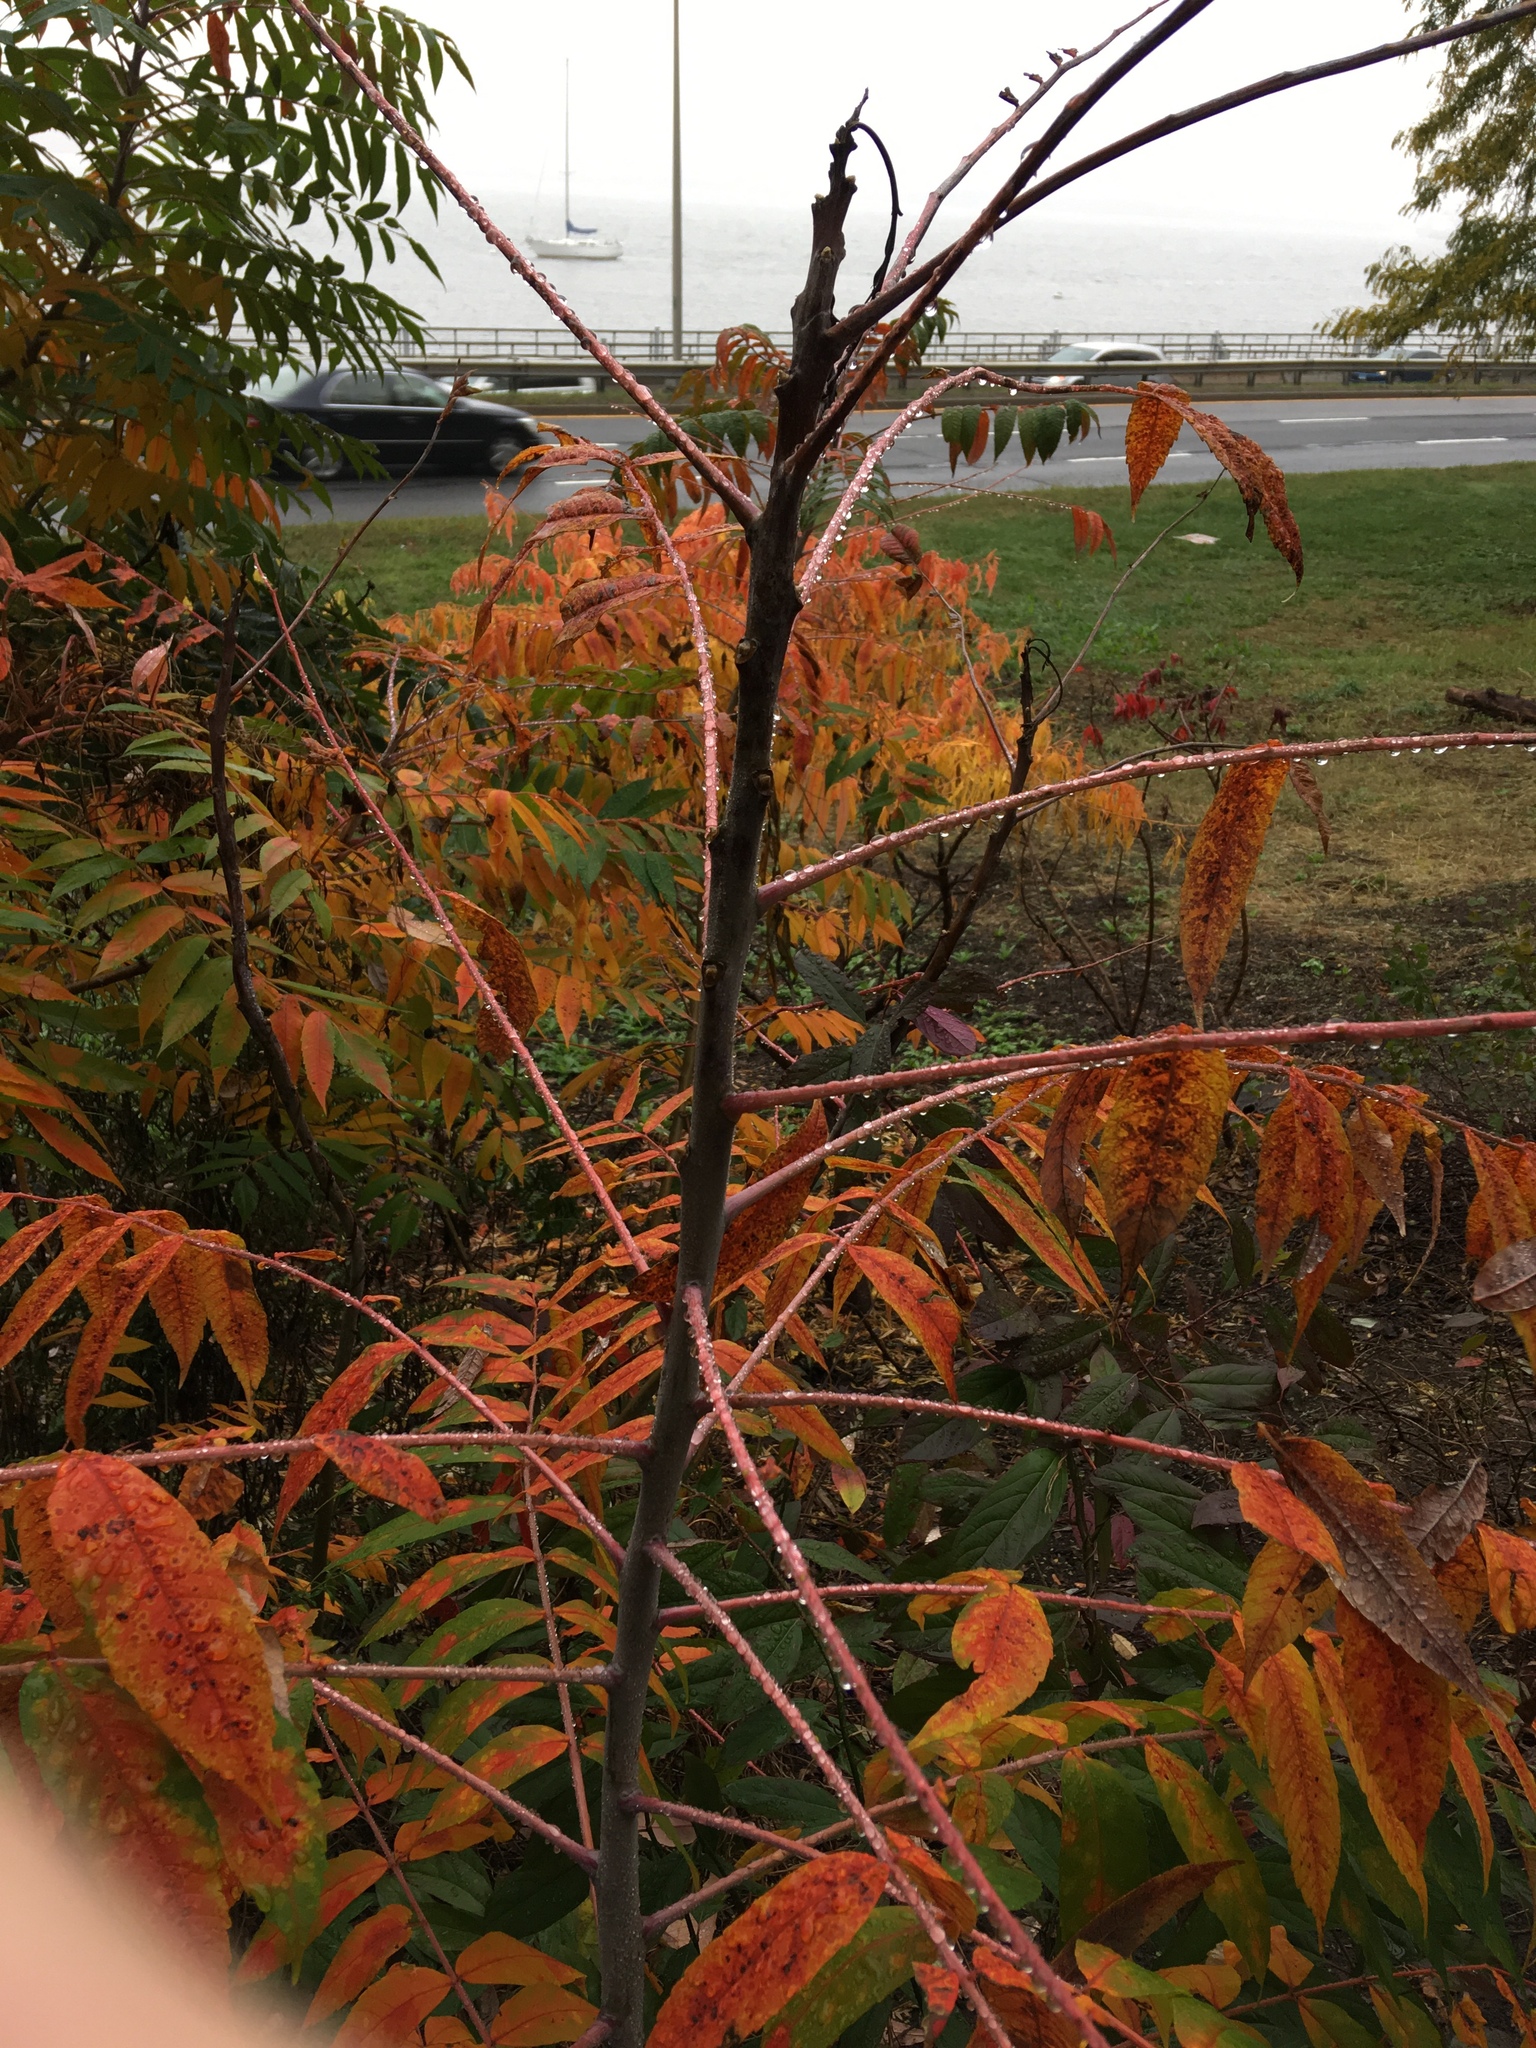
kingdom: Plantae
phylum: Tracheophyta
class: Magnoliopsida
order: Sapindales
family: Anacardiaceae
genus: Rhus
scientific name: Rhus glabra
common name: Scarlet sumac
